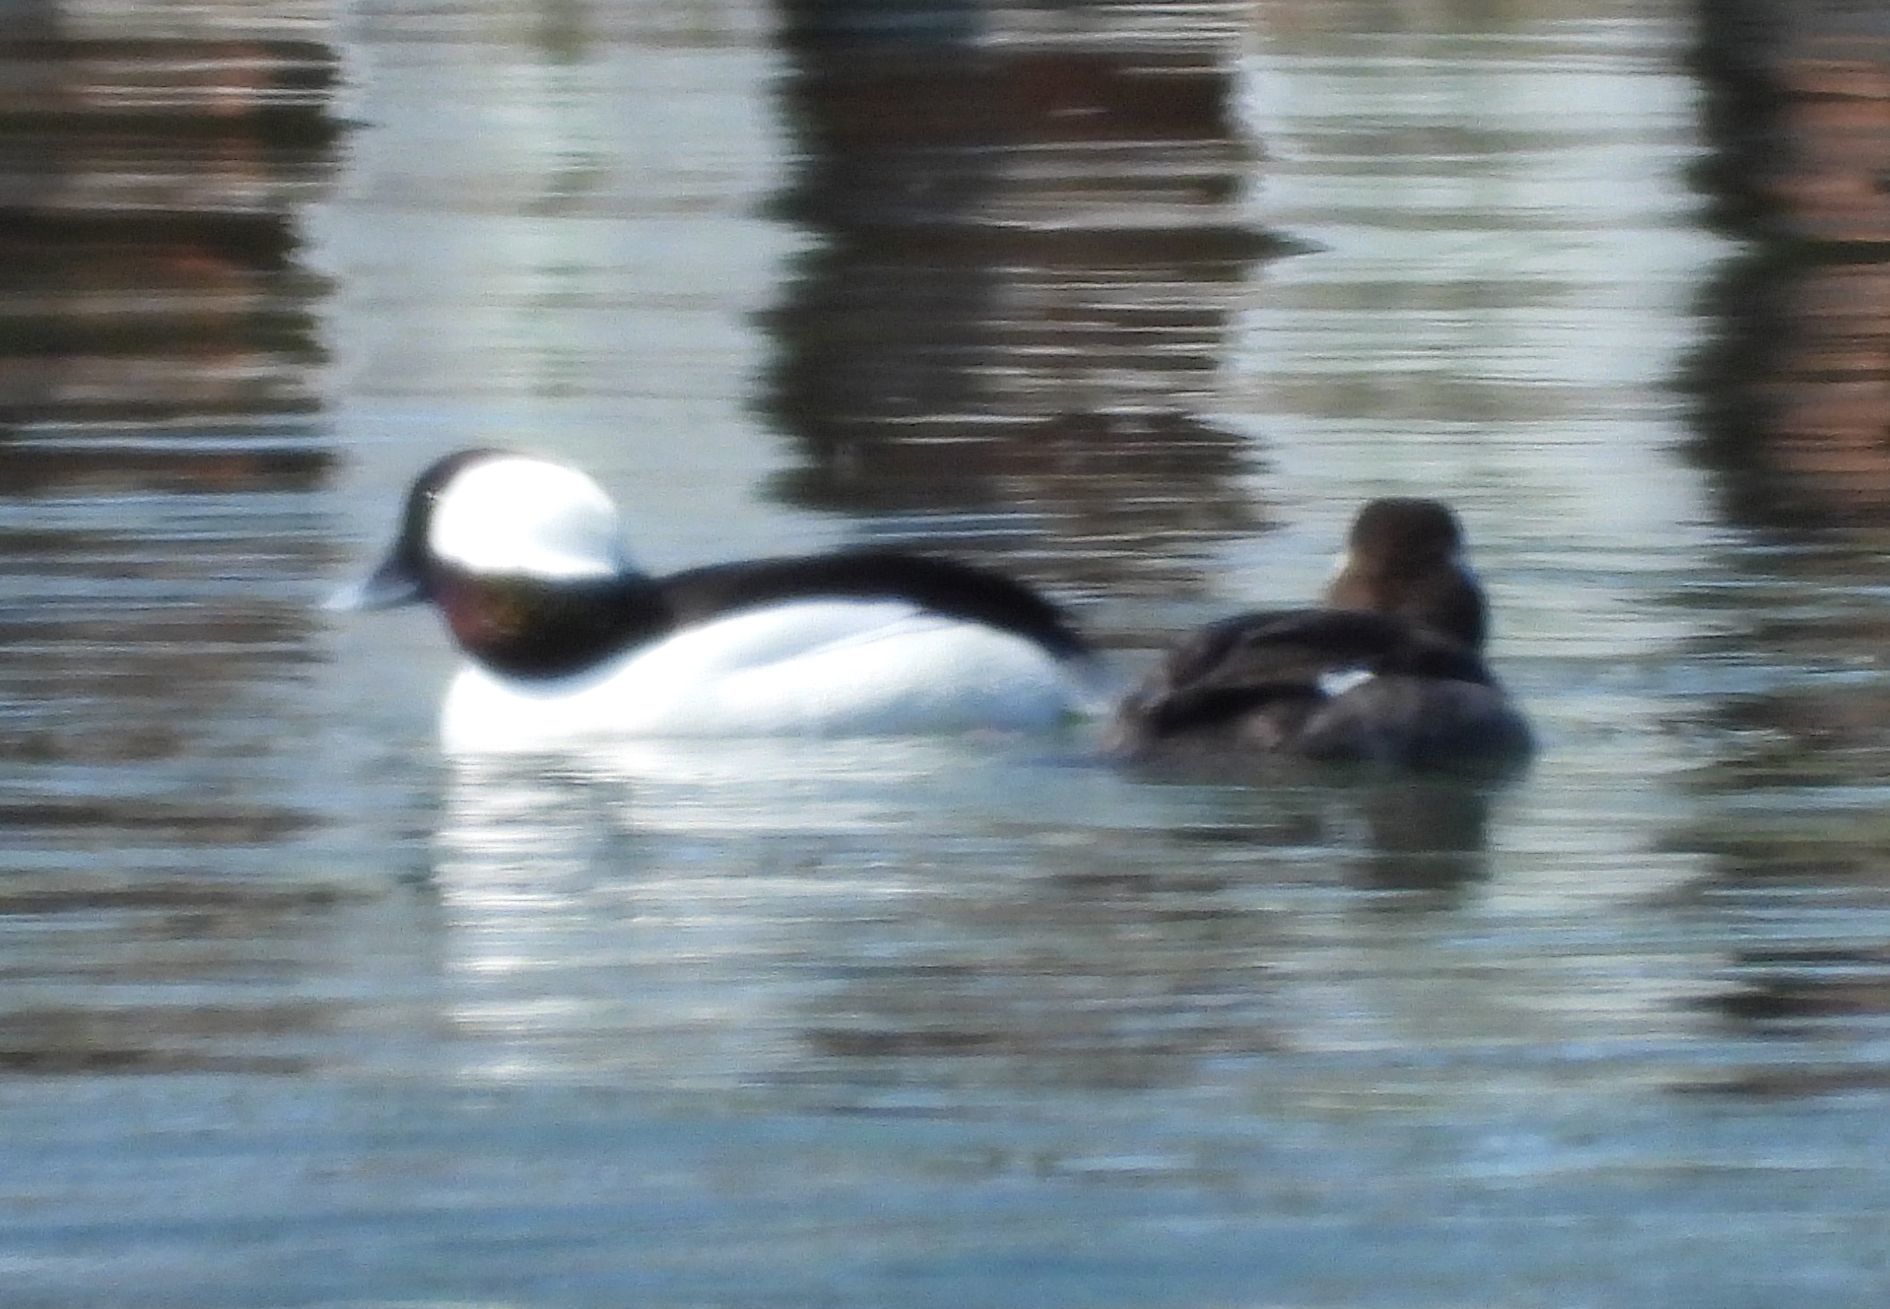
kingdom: Animalia
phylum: Chordata
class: Aves
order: Anseriformes
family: Anatidae
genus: Bucephala
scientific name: Bucephala albeola
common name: Bufflehead
